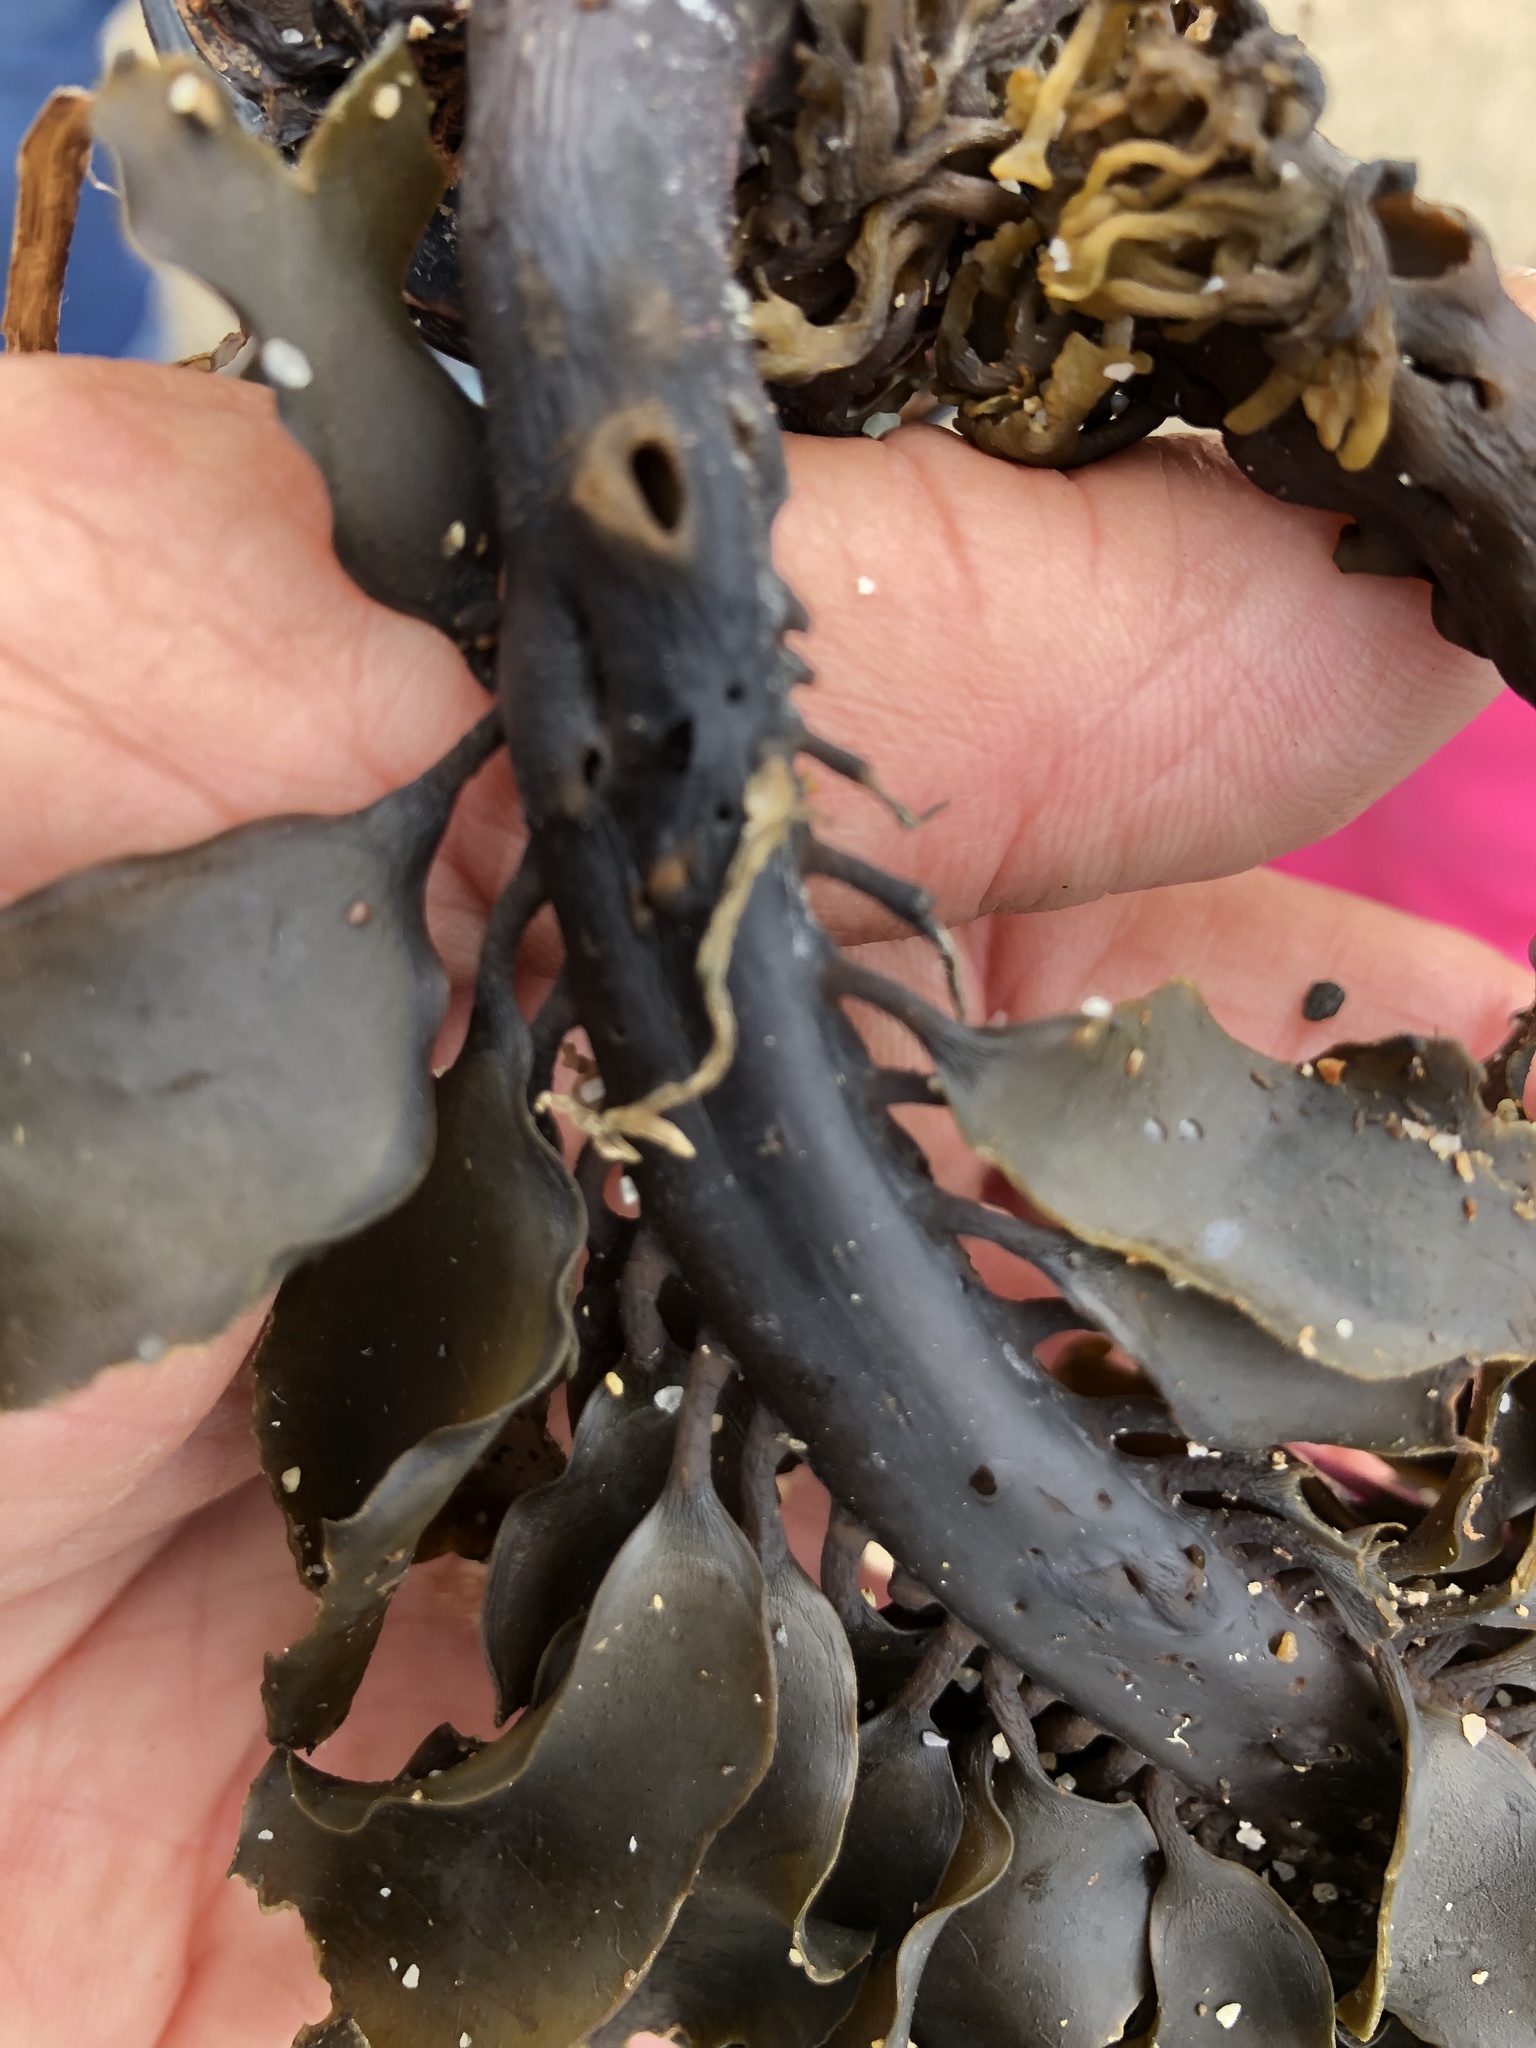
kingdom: Chromista
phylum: Ochrophyta
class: Phaeophyceae
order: Laminariales
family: Alariaceae
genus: Alaria
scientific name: Alaria marginata
